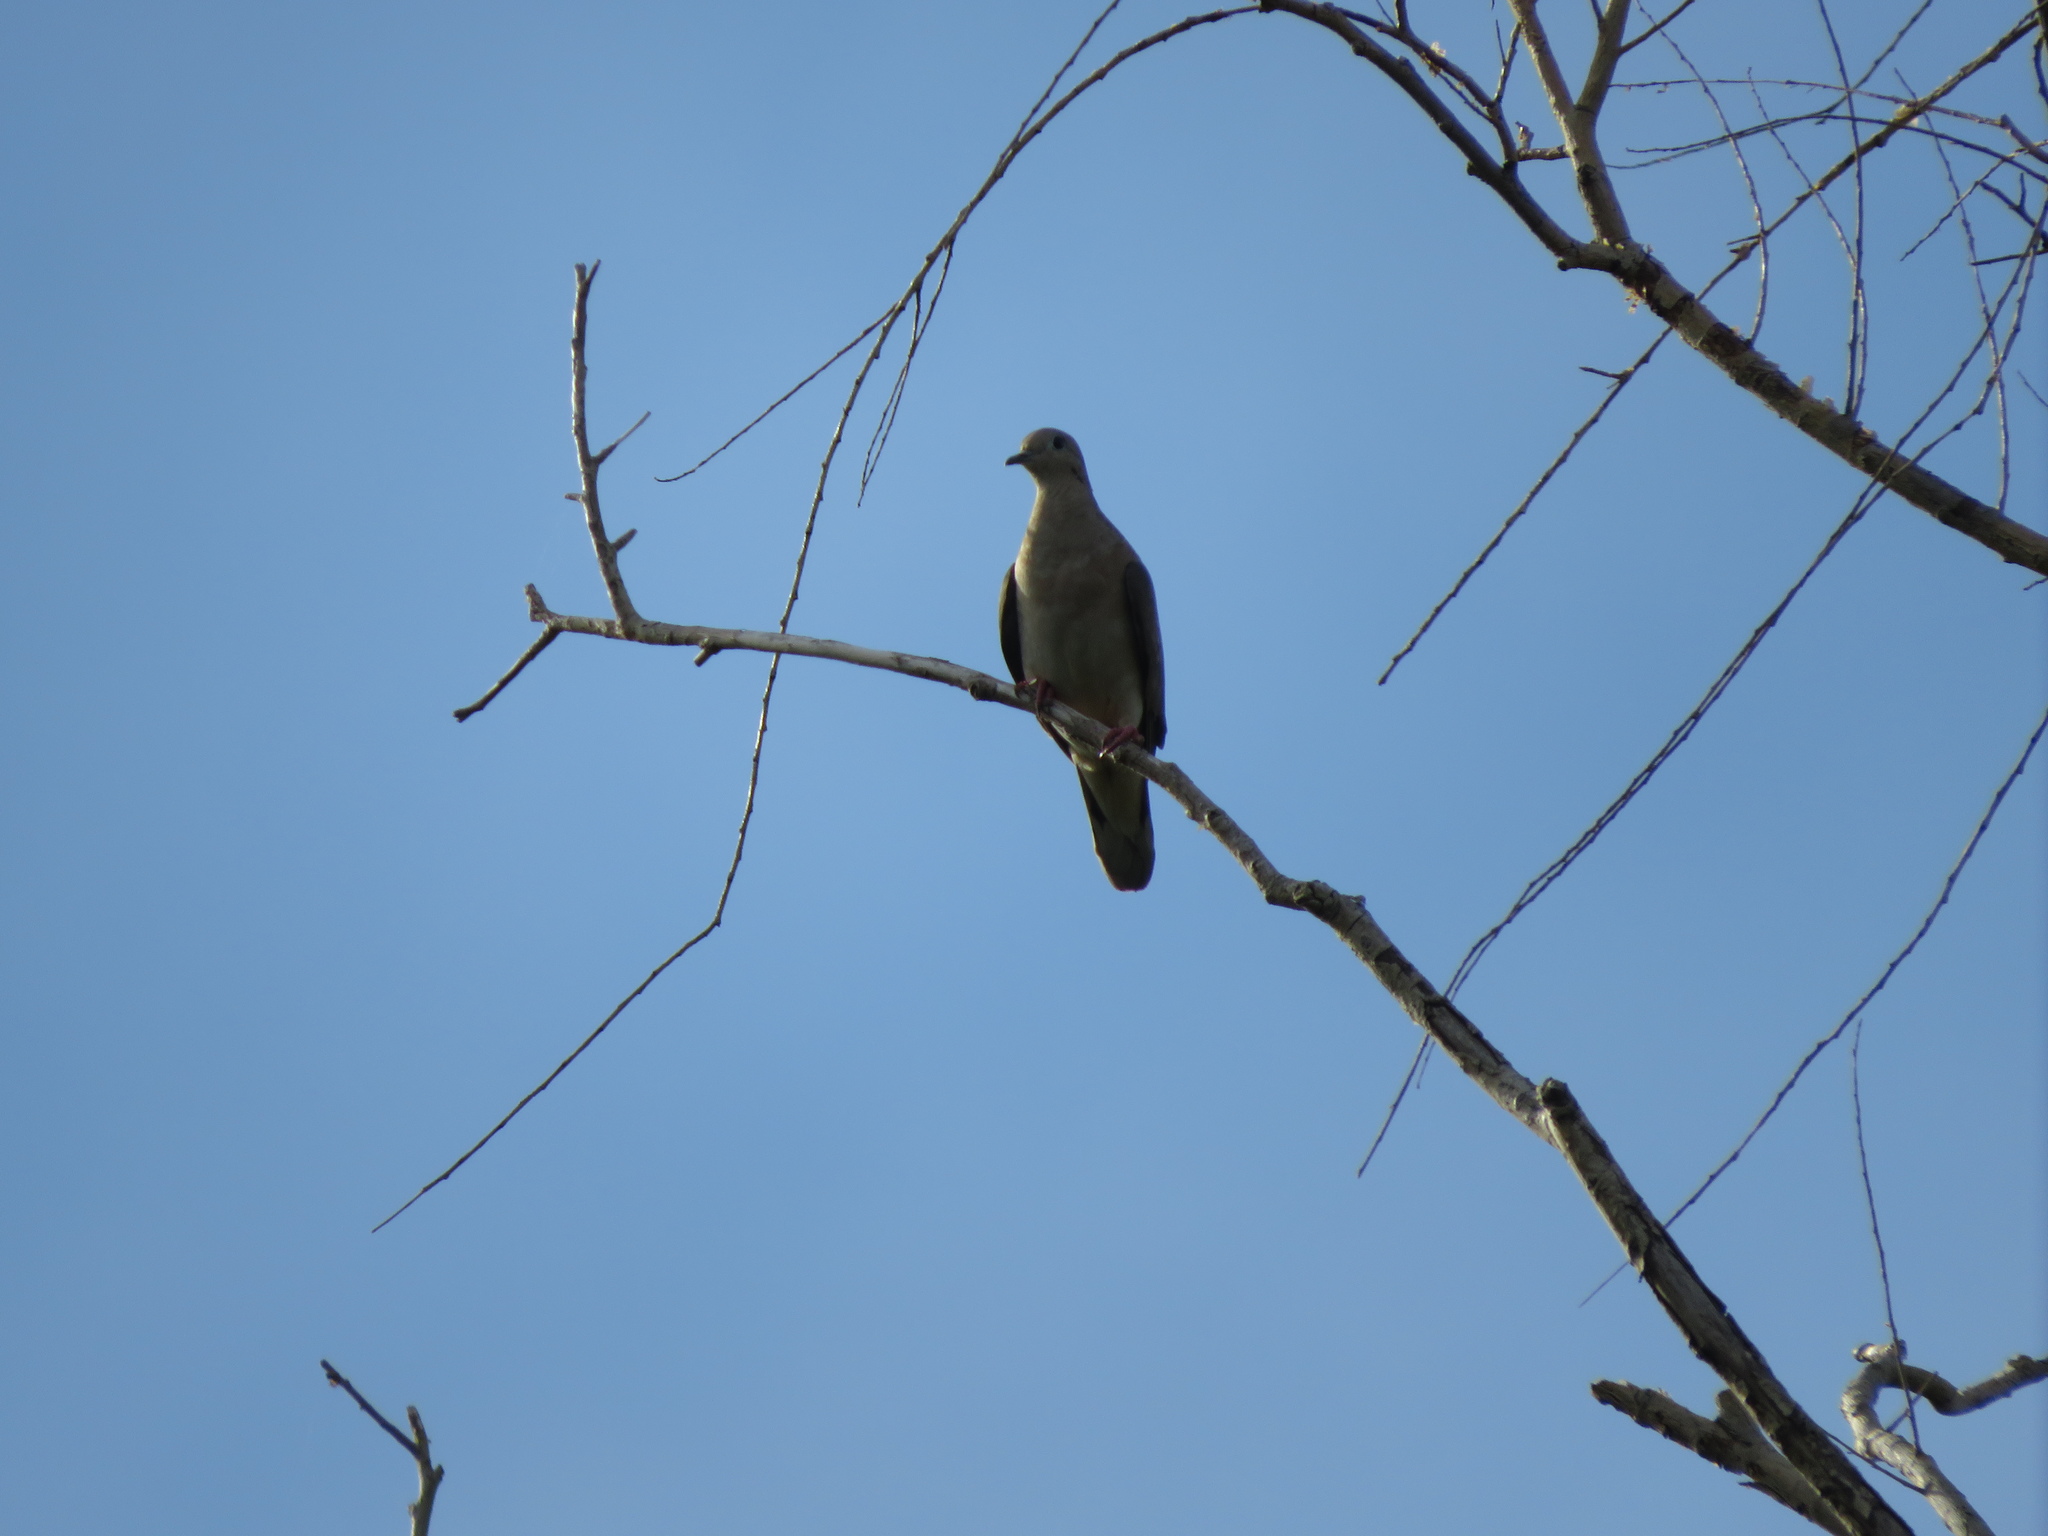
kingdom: Animalia
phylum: Chordata
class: Aves
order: Columbiformes
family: Columbidae
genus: Zenaida
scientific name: Zenaida auriculata
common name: Eared dove
